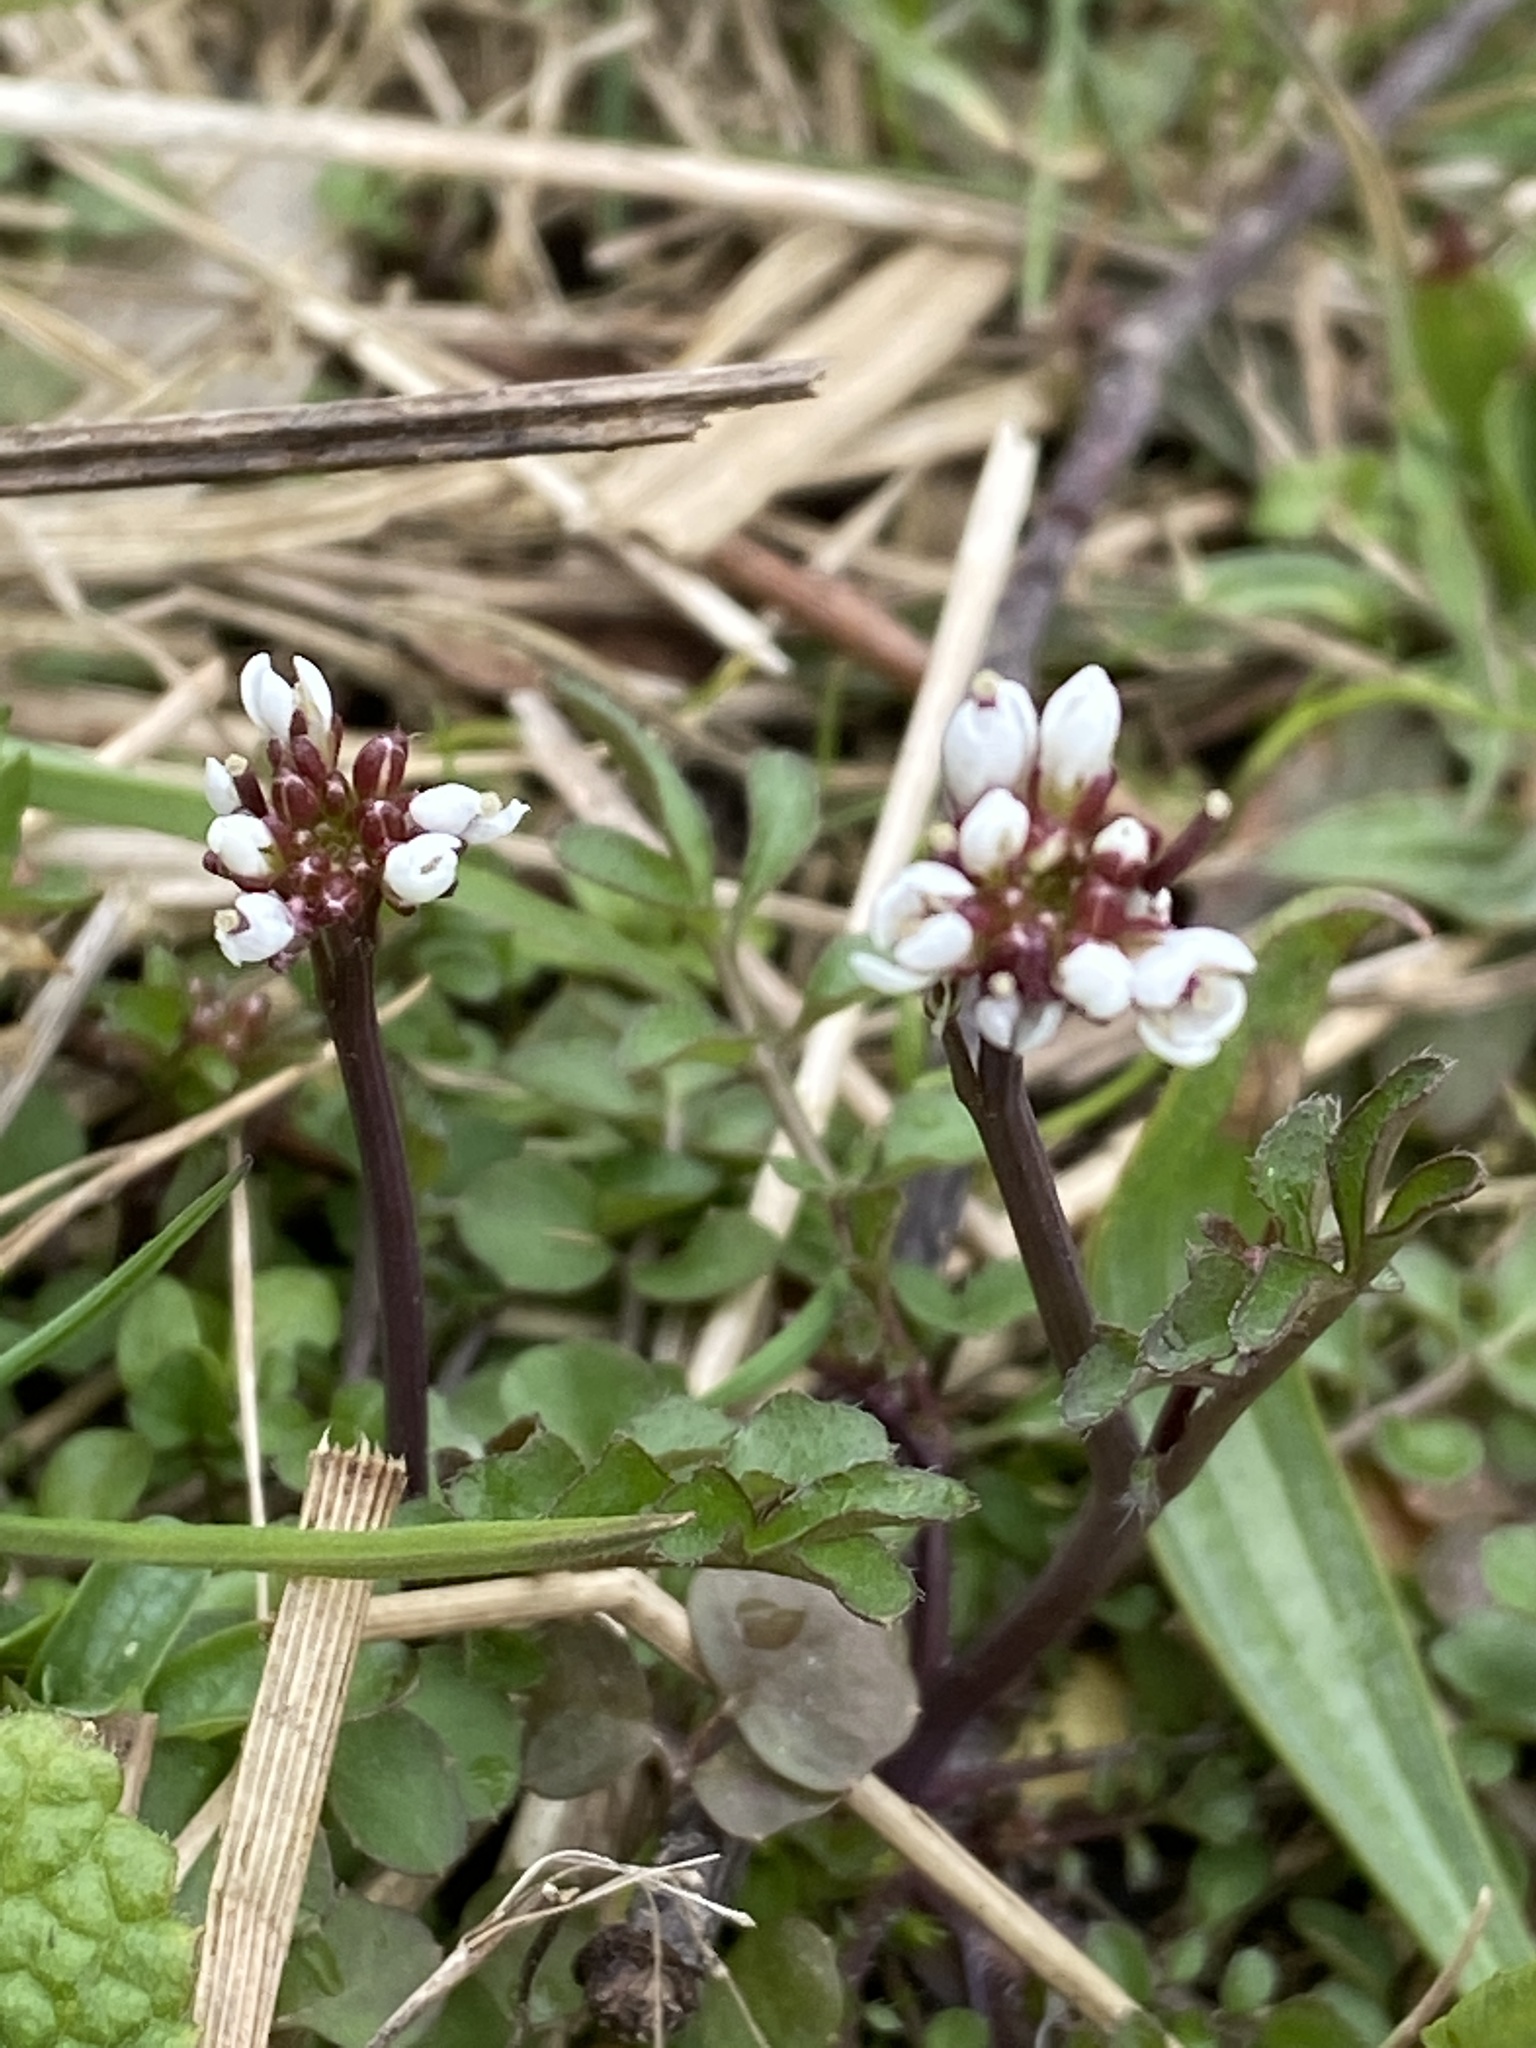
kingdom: Plantae
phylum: Tracheophyta
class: Magnoliopsida
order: Brassicales
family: Brassicaceae
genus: Cardamine
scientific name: Cardamine hirsuta
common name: Hairy bittercress
